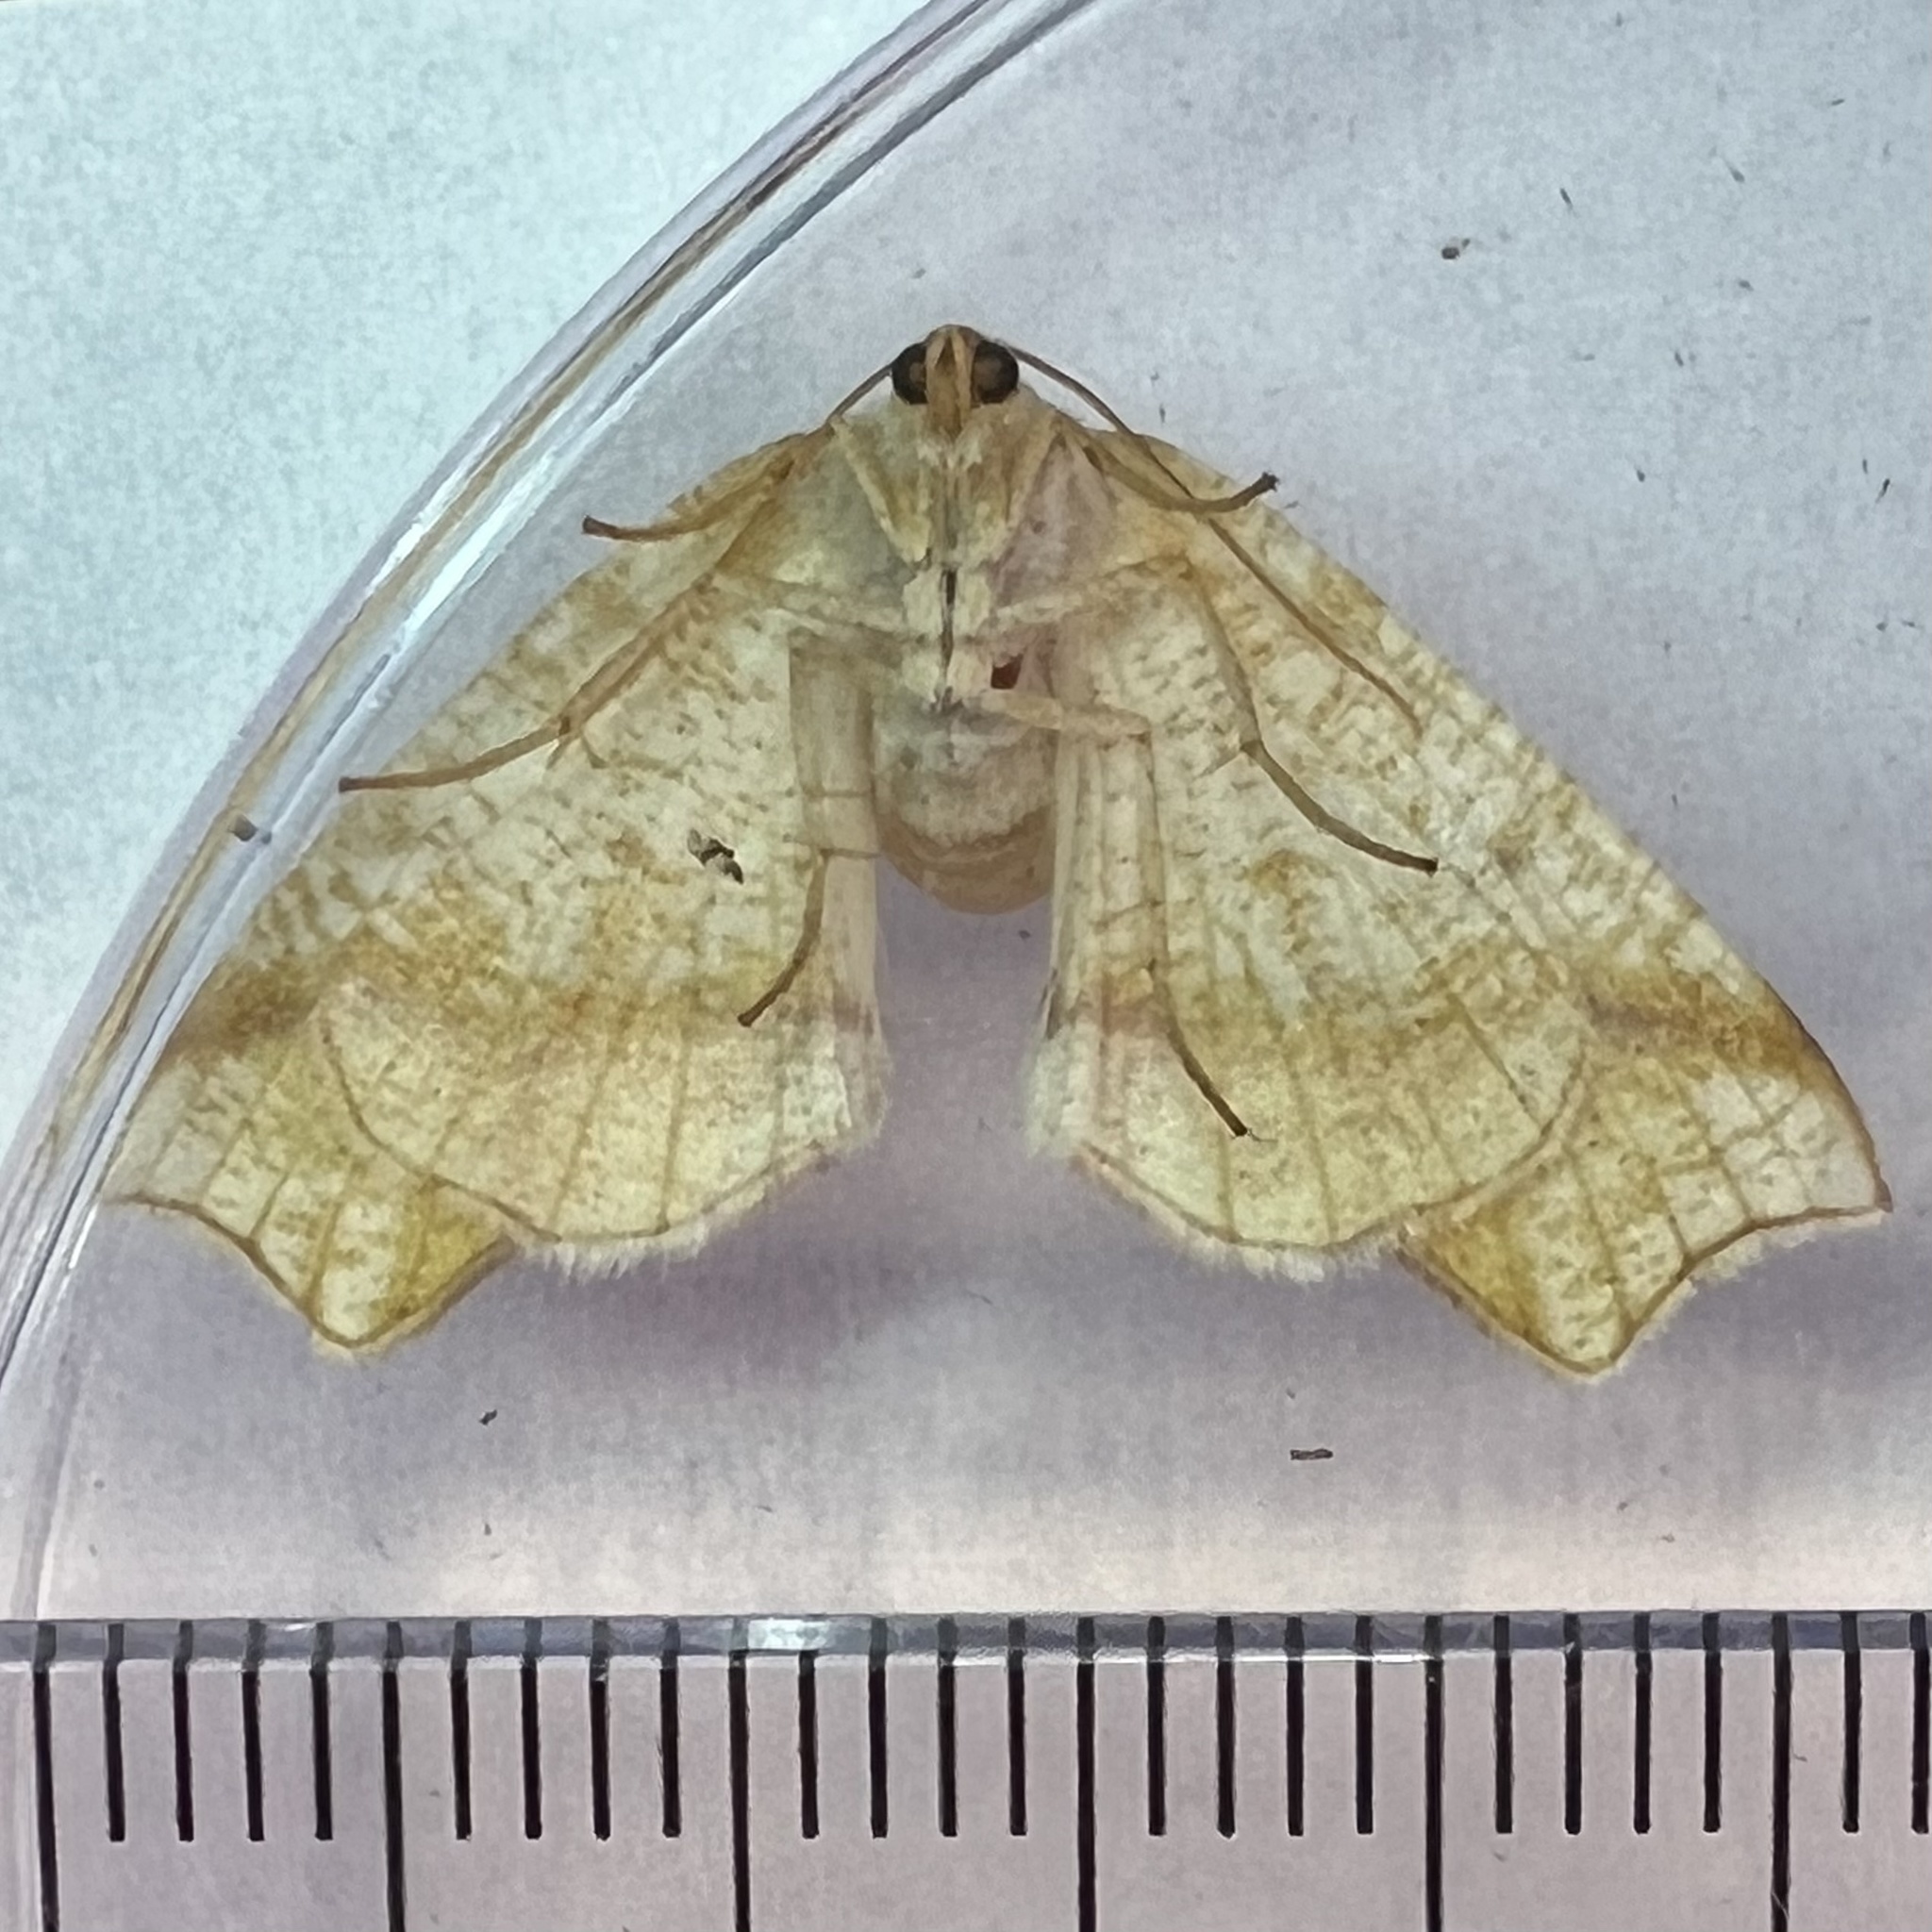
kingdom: Animalia
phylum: Arthropoda
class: Insecta
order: Lepidoptera
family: Geometridae
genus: Plagodis
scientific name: Plagodis alcoolaria
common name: Hollow-spotted plagodis
